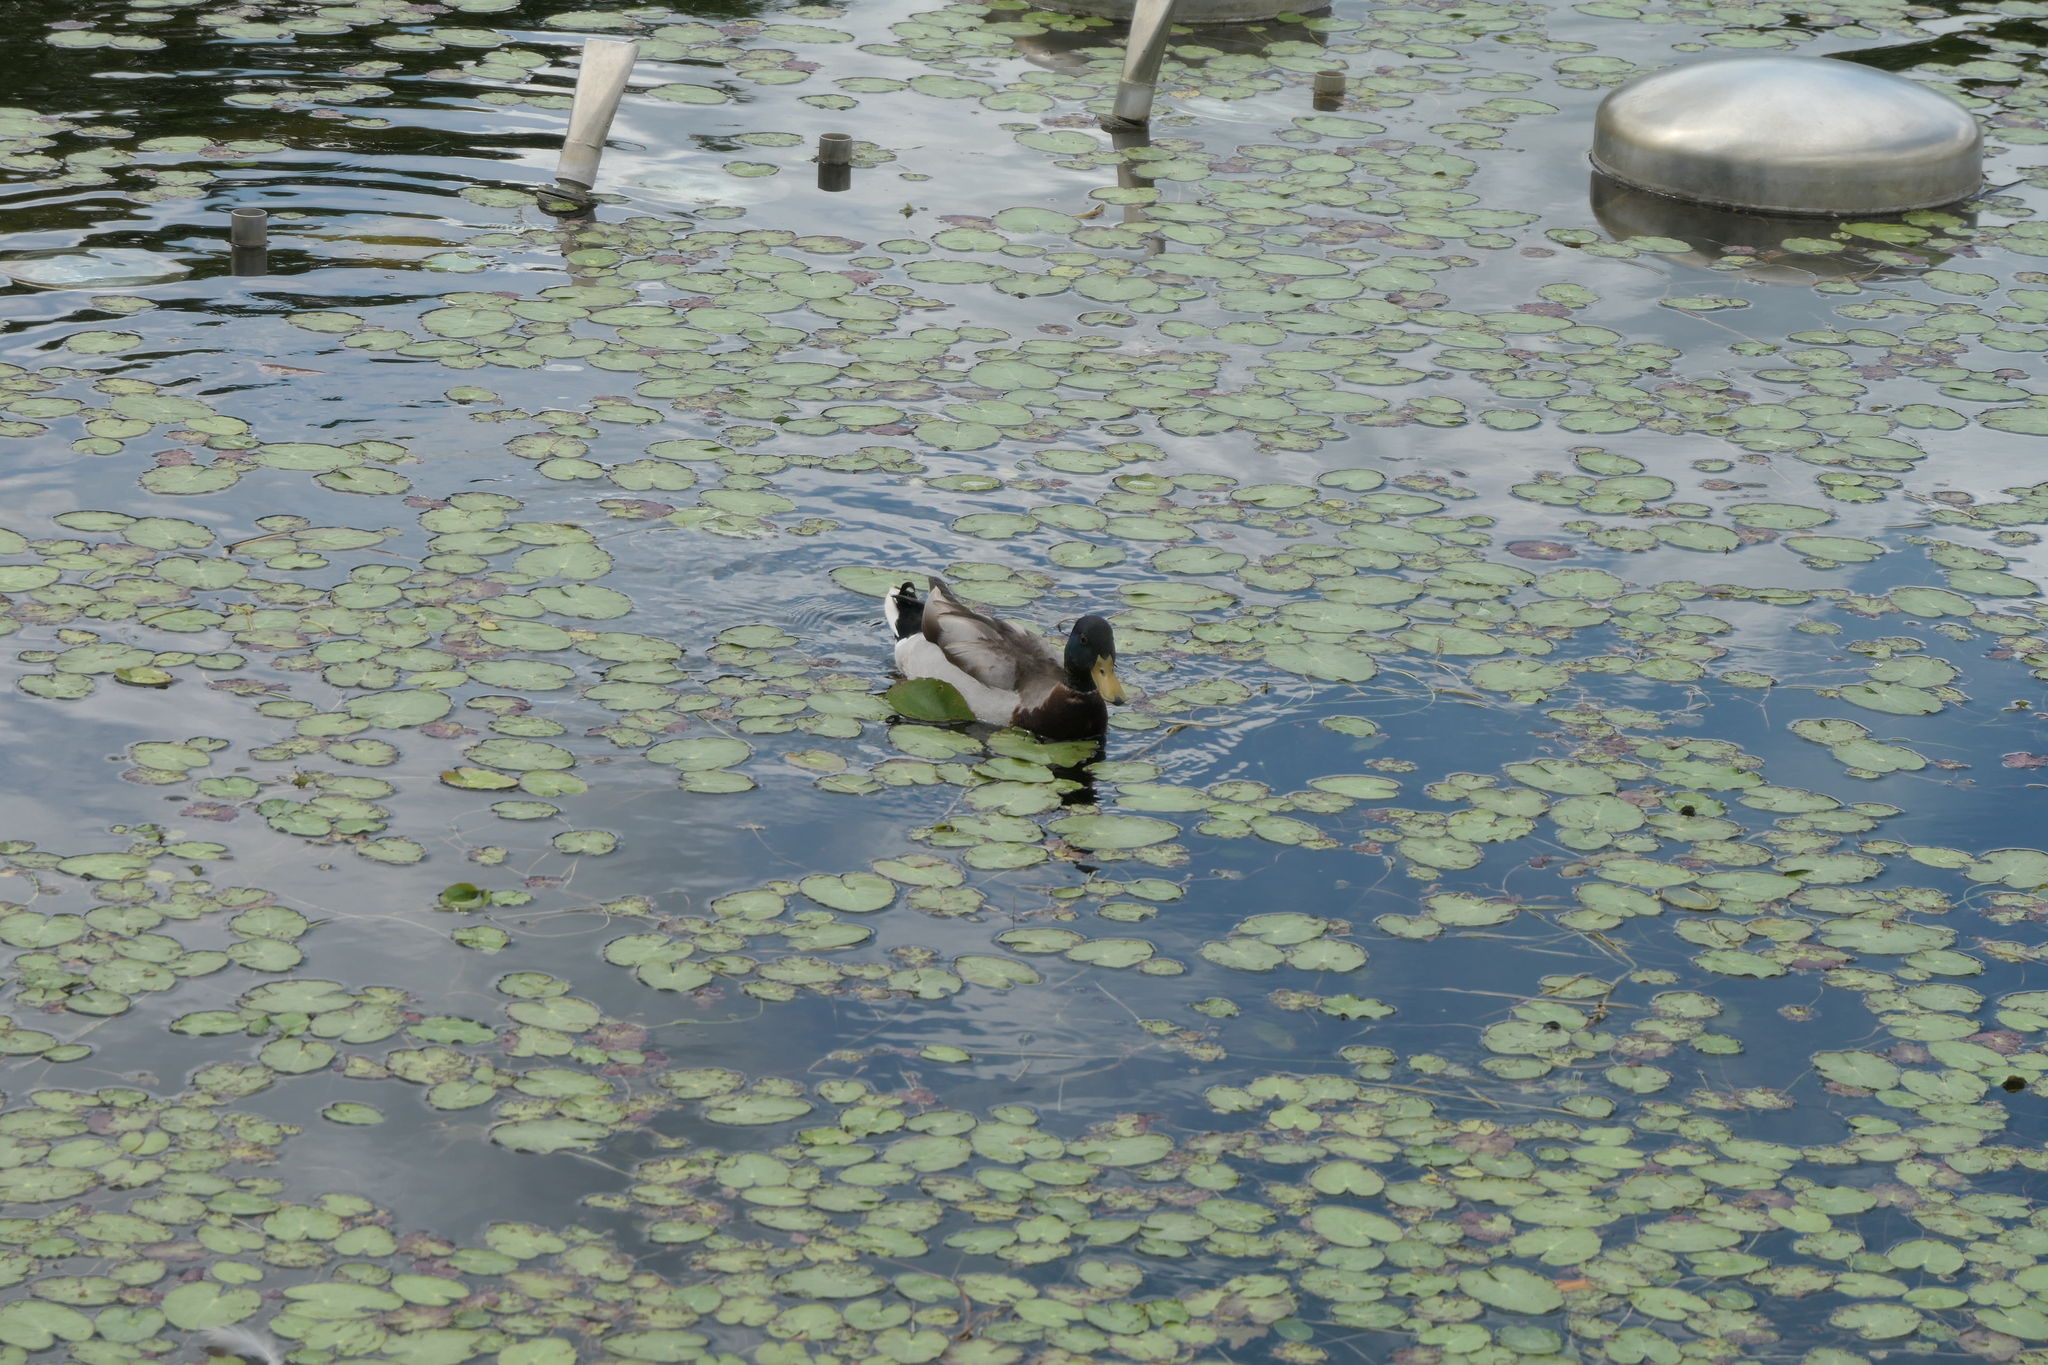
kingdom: Animalia
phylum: Chordata
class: Aves
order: Anseriformes
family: Anatidae
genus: Anas
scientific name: Anas platyrhynchos
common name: Mallard
